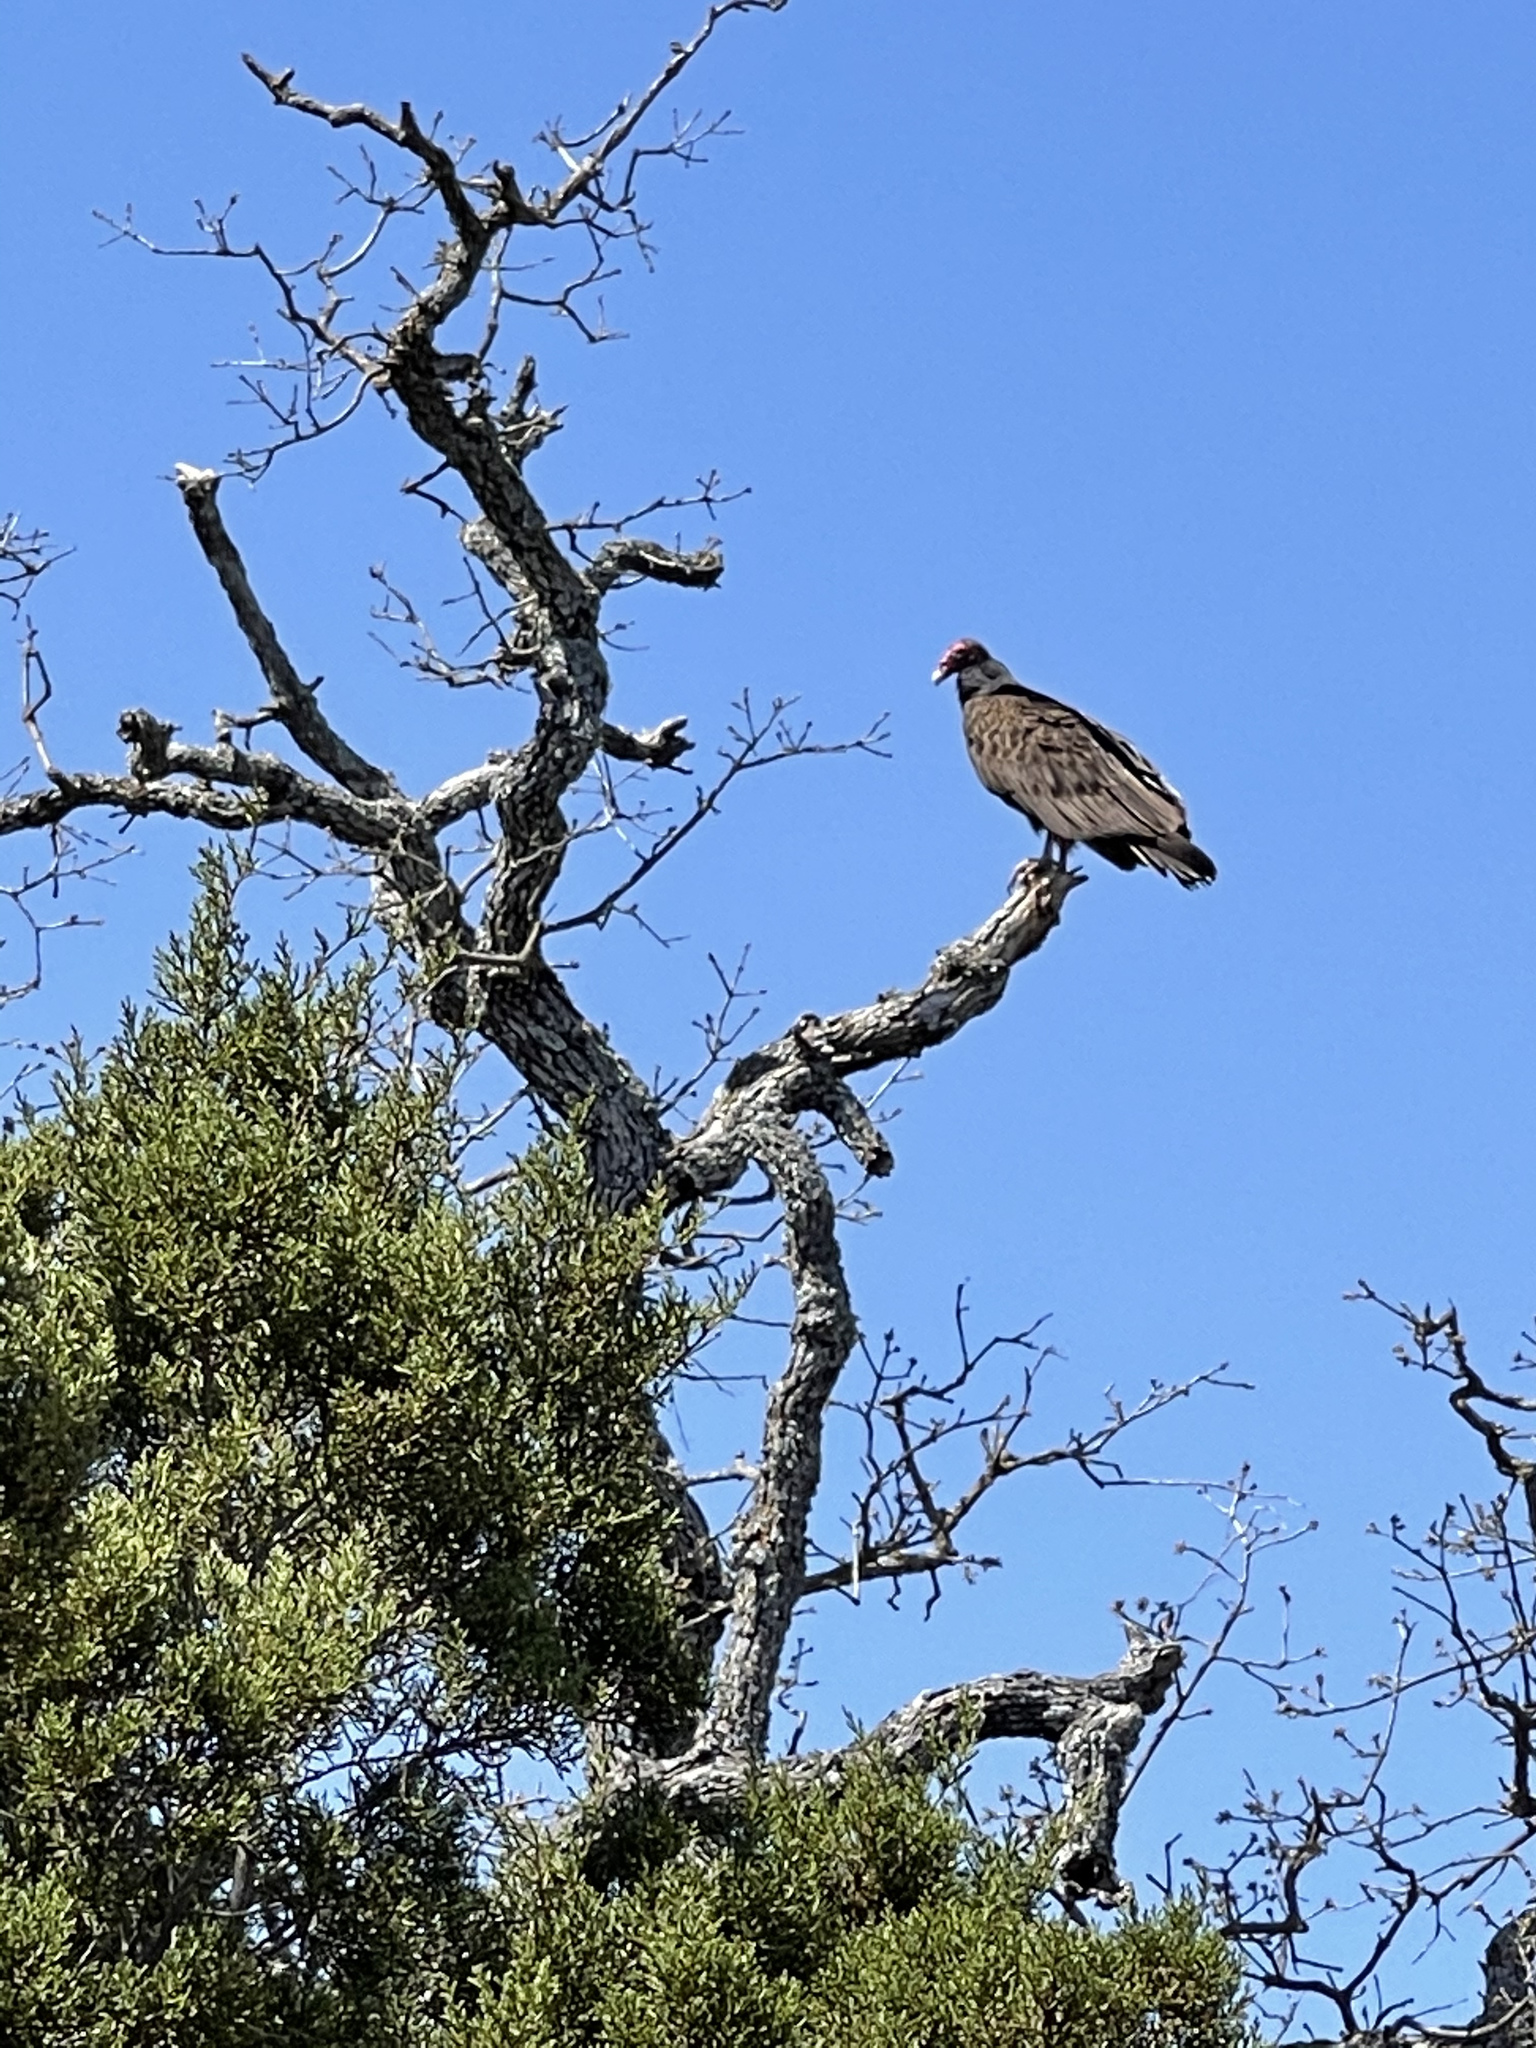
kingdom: Animalia
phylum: Chordata
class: Aves
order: Accipitriformes
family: Cathartidae
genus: Cathartes
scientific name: Cathartes aura
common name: Turkey vulture
